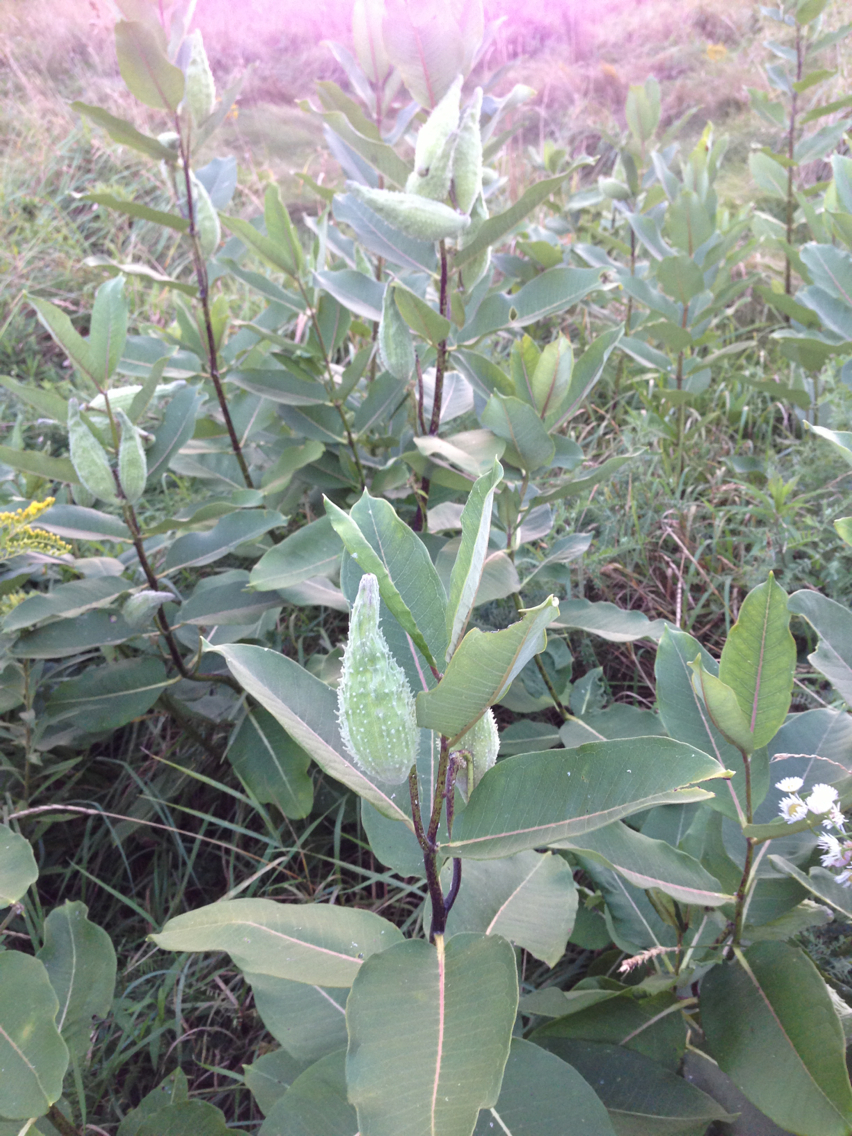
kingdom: Plantae
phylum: Tracheophyta
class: Magnoliopsida
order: Gentianales
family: Apocynaceae
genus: Asclepias
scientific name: Asclepias syriaca
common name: Common milkweed
